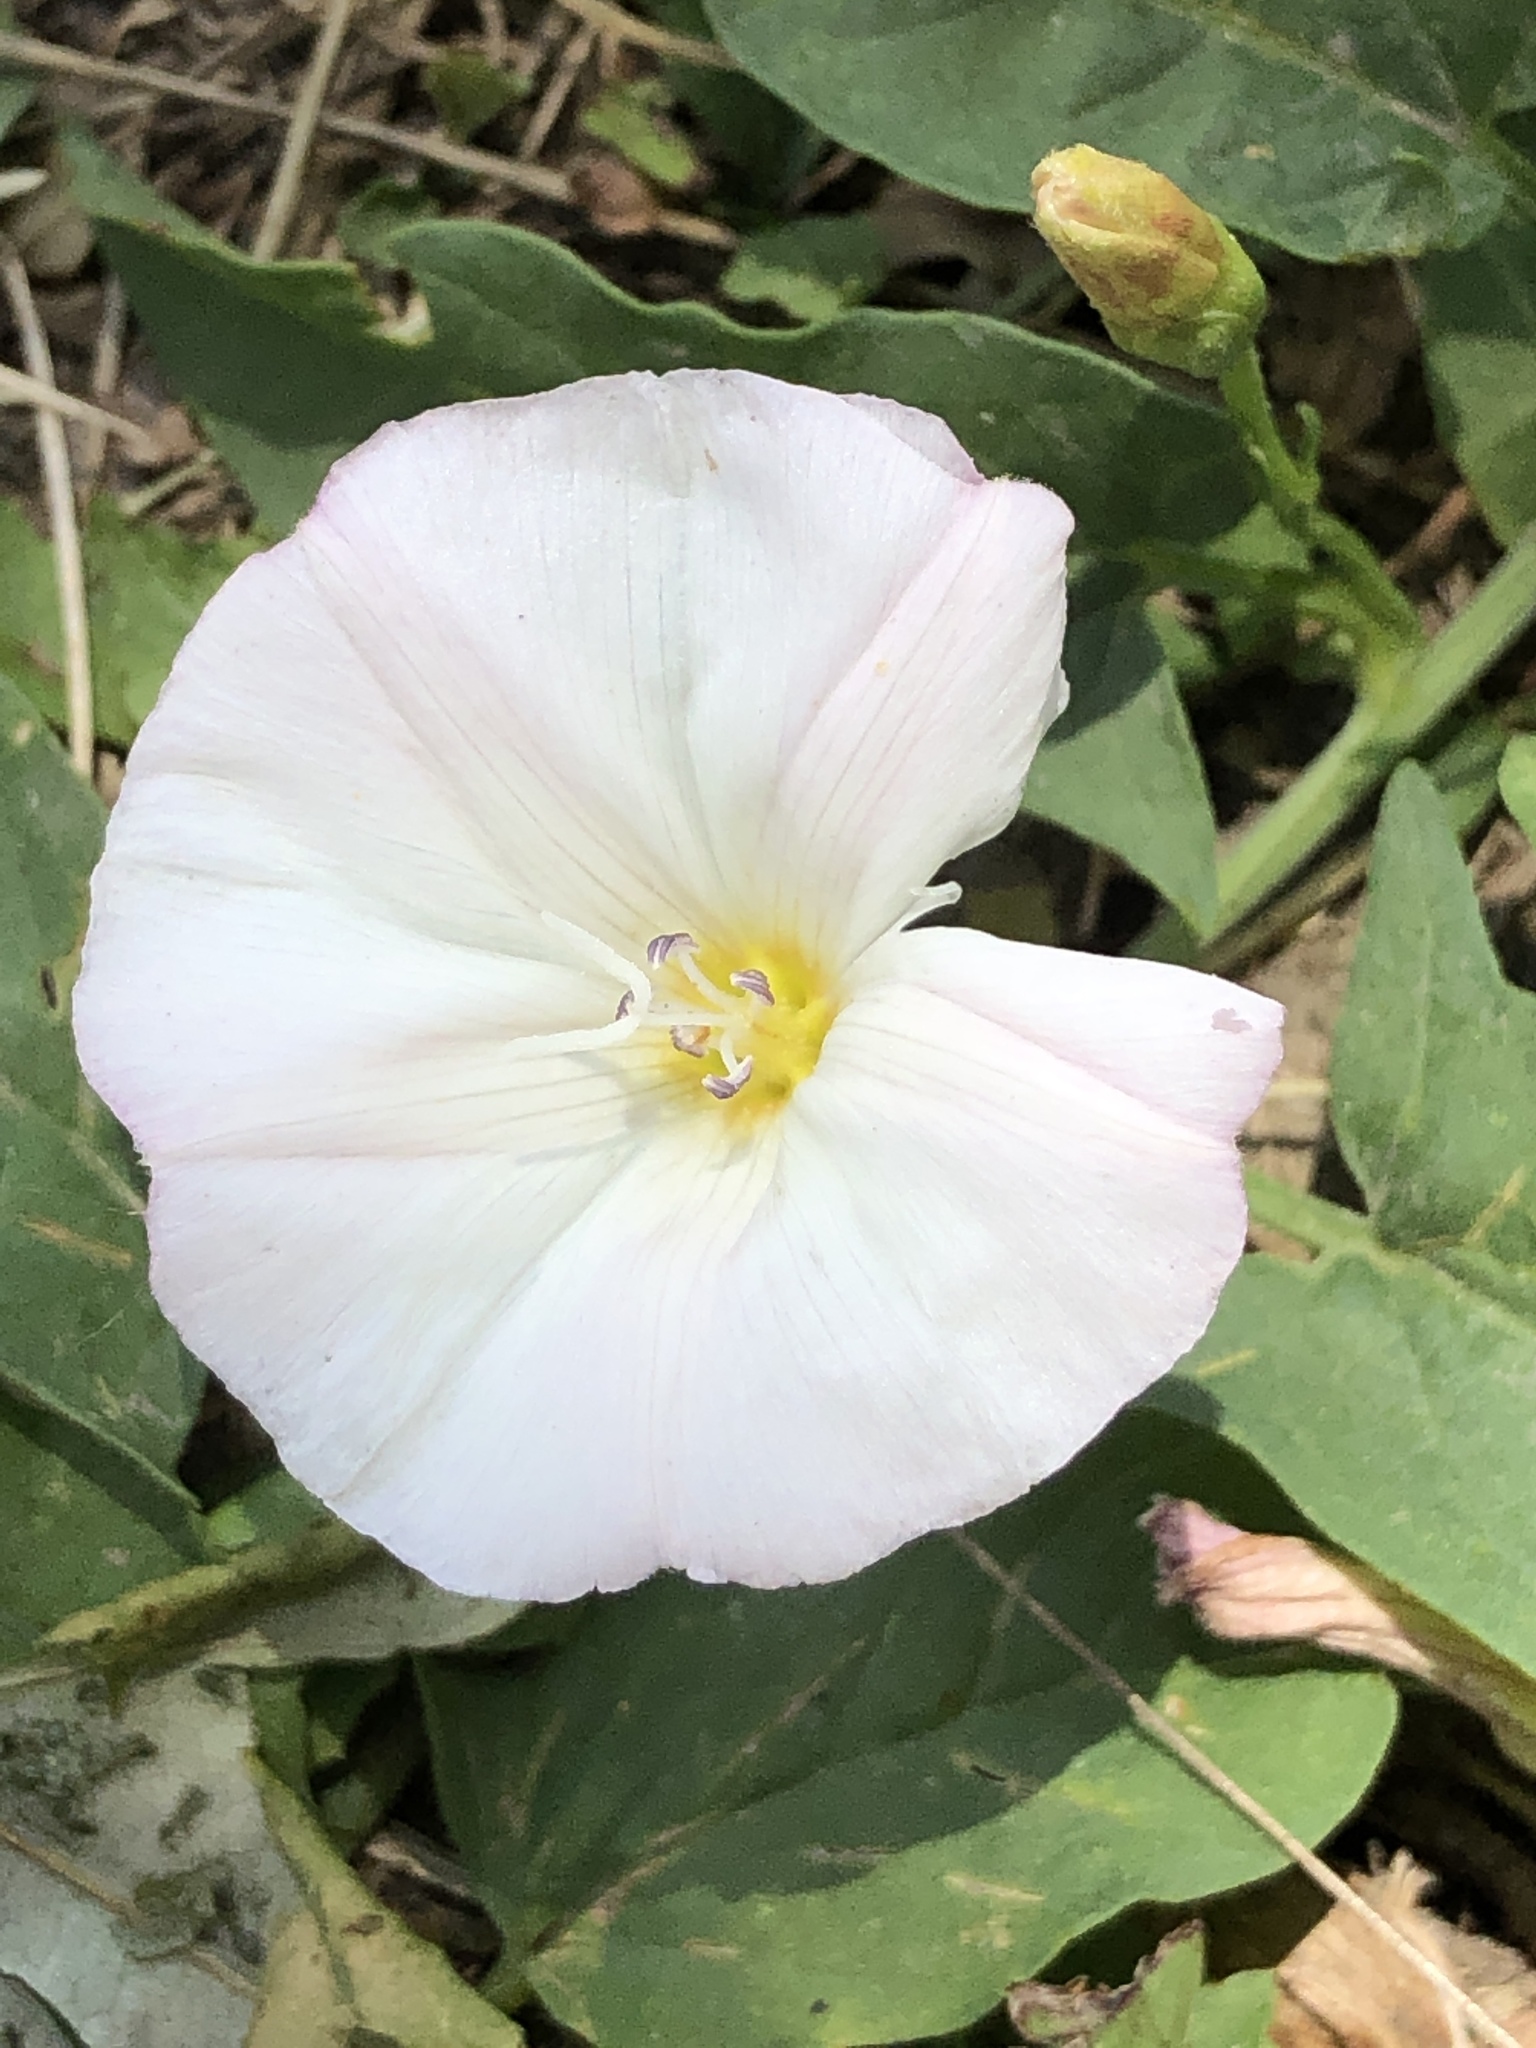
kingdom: Plantae
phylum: Tracheophyta
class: Magnoliopsida
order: Solanales
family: Convolvulaceae
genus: Convolvulus
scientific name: Convolvulus arvensis
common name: Field bindweed
